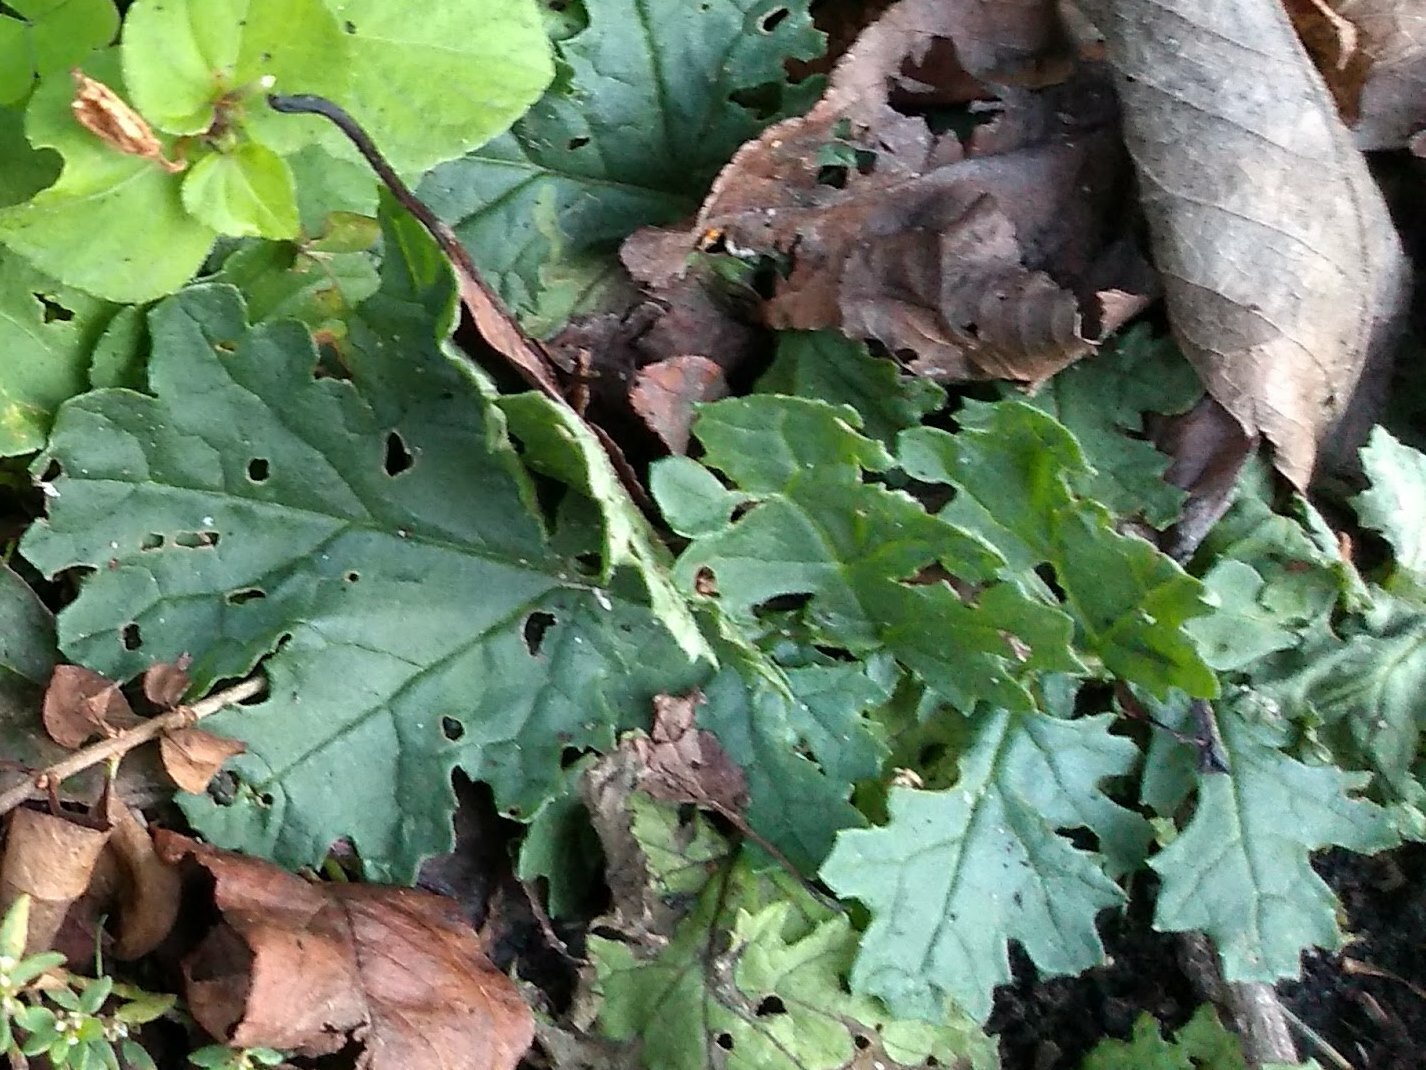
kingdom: Plantae
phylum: Tracheophyta
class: Magnoliopsida
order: Asterales
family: Asteraceae
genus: Jacobaea
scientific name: Jacobaea vulgaris
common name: Stinking willie
